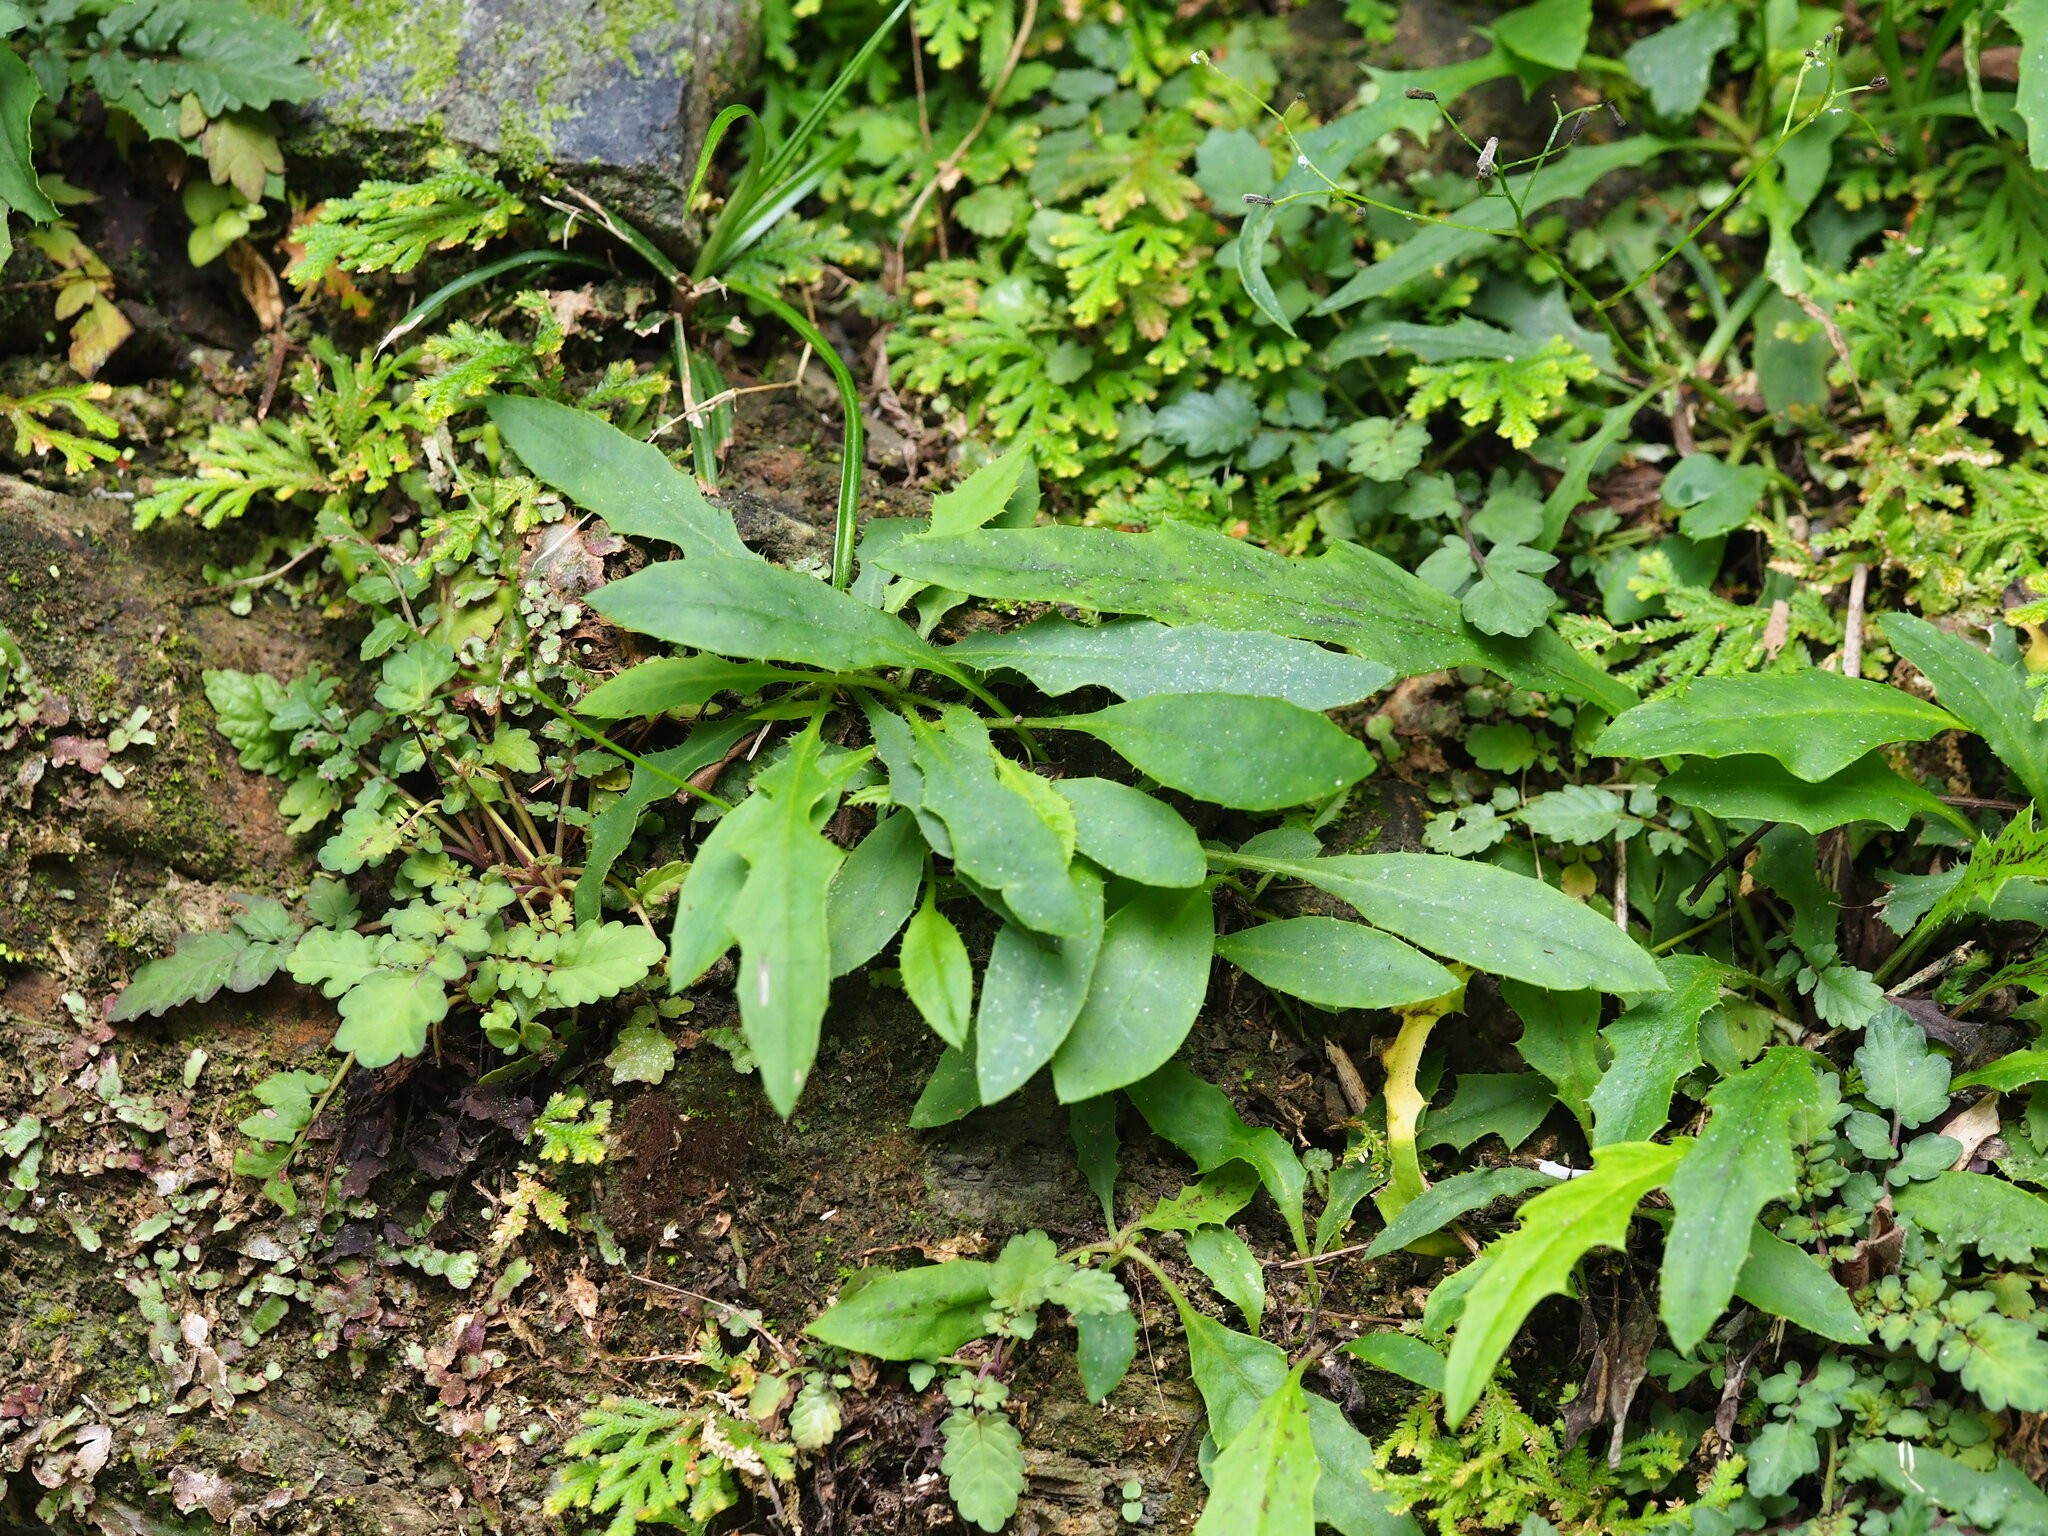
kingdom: Plantae
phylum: Tracheophyta
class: Magnoliopsida
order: Asterales
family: Asteraceae
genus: Ixeridium
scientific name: Ixeridium laevigatum
